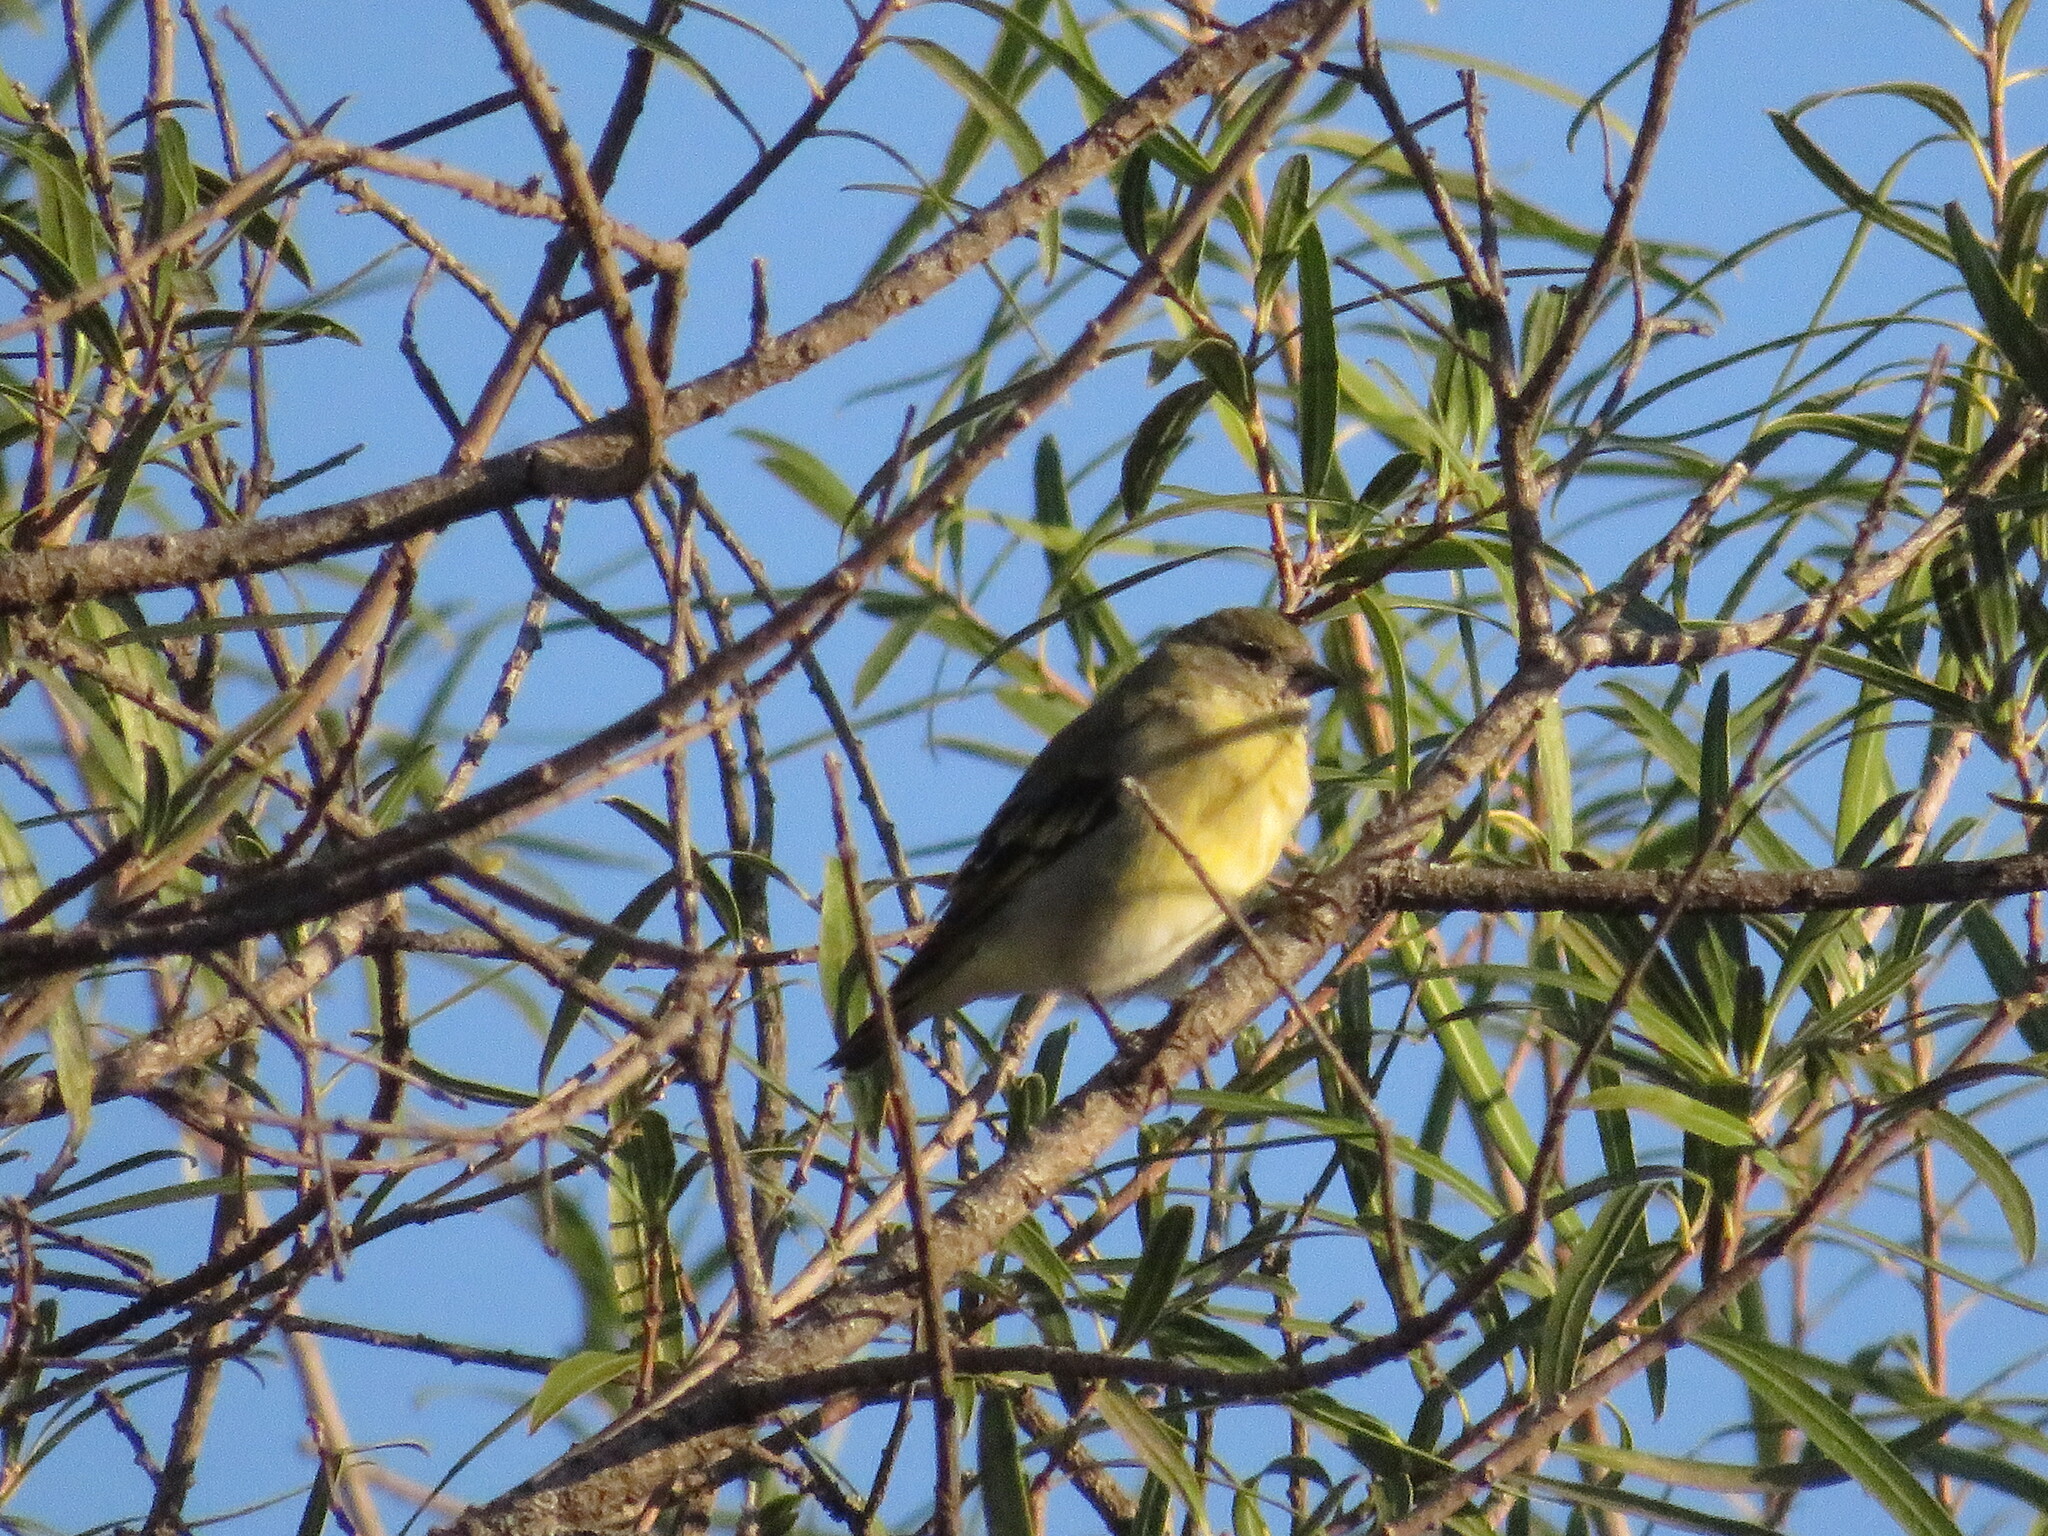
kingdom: Animalia
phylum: Chordata
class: Aves
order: Passeriformes
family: Fringillidae
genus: Spinus
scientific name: Spinus magellanicus
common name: Hooded siskin
